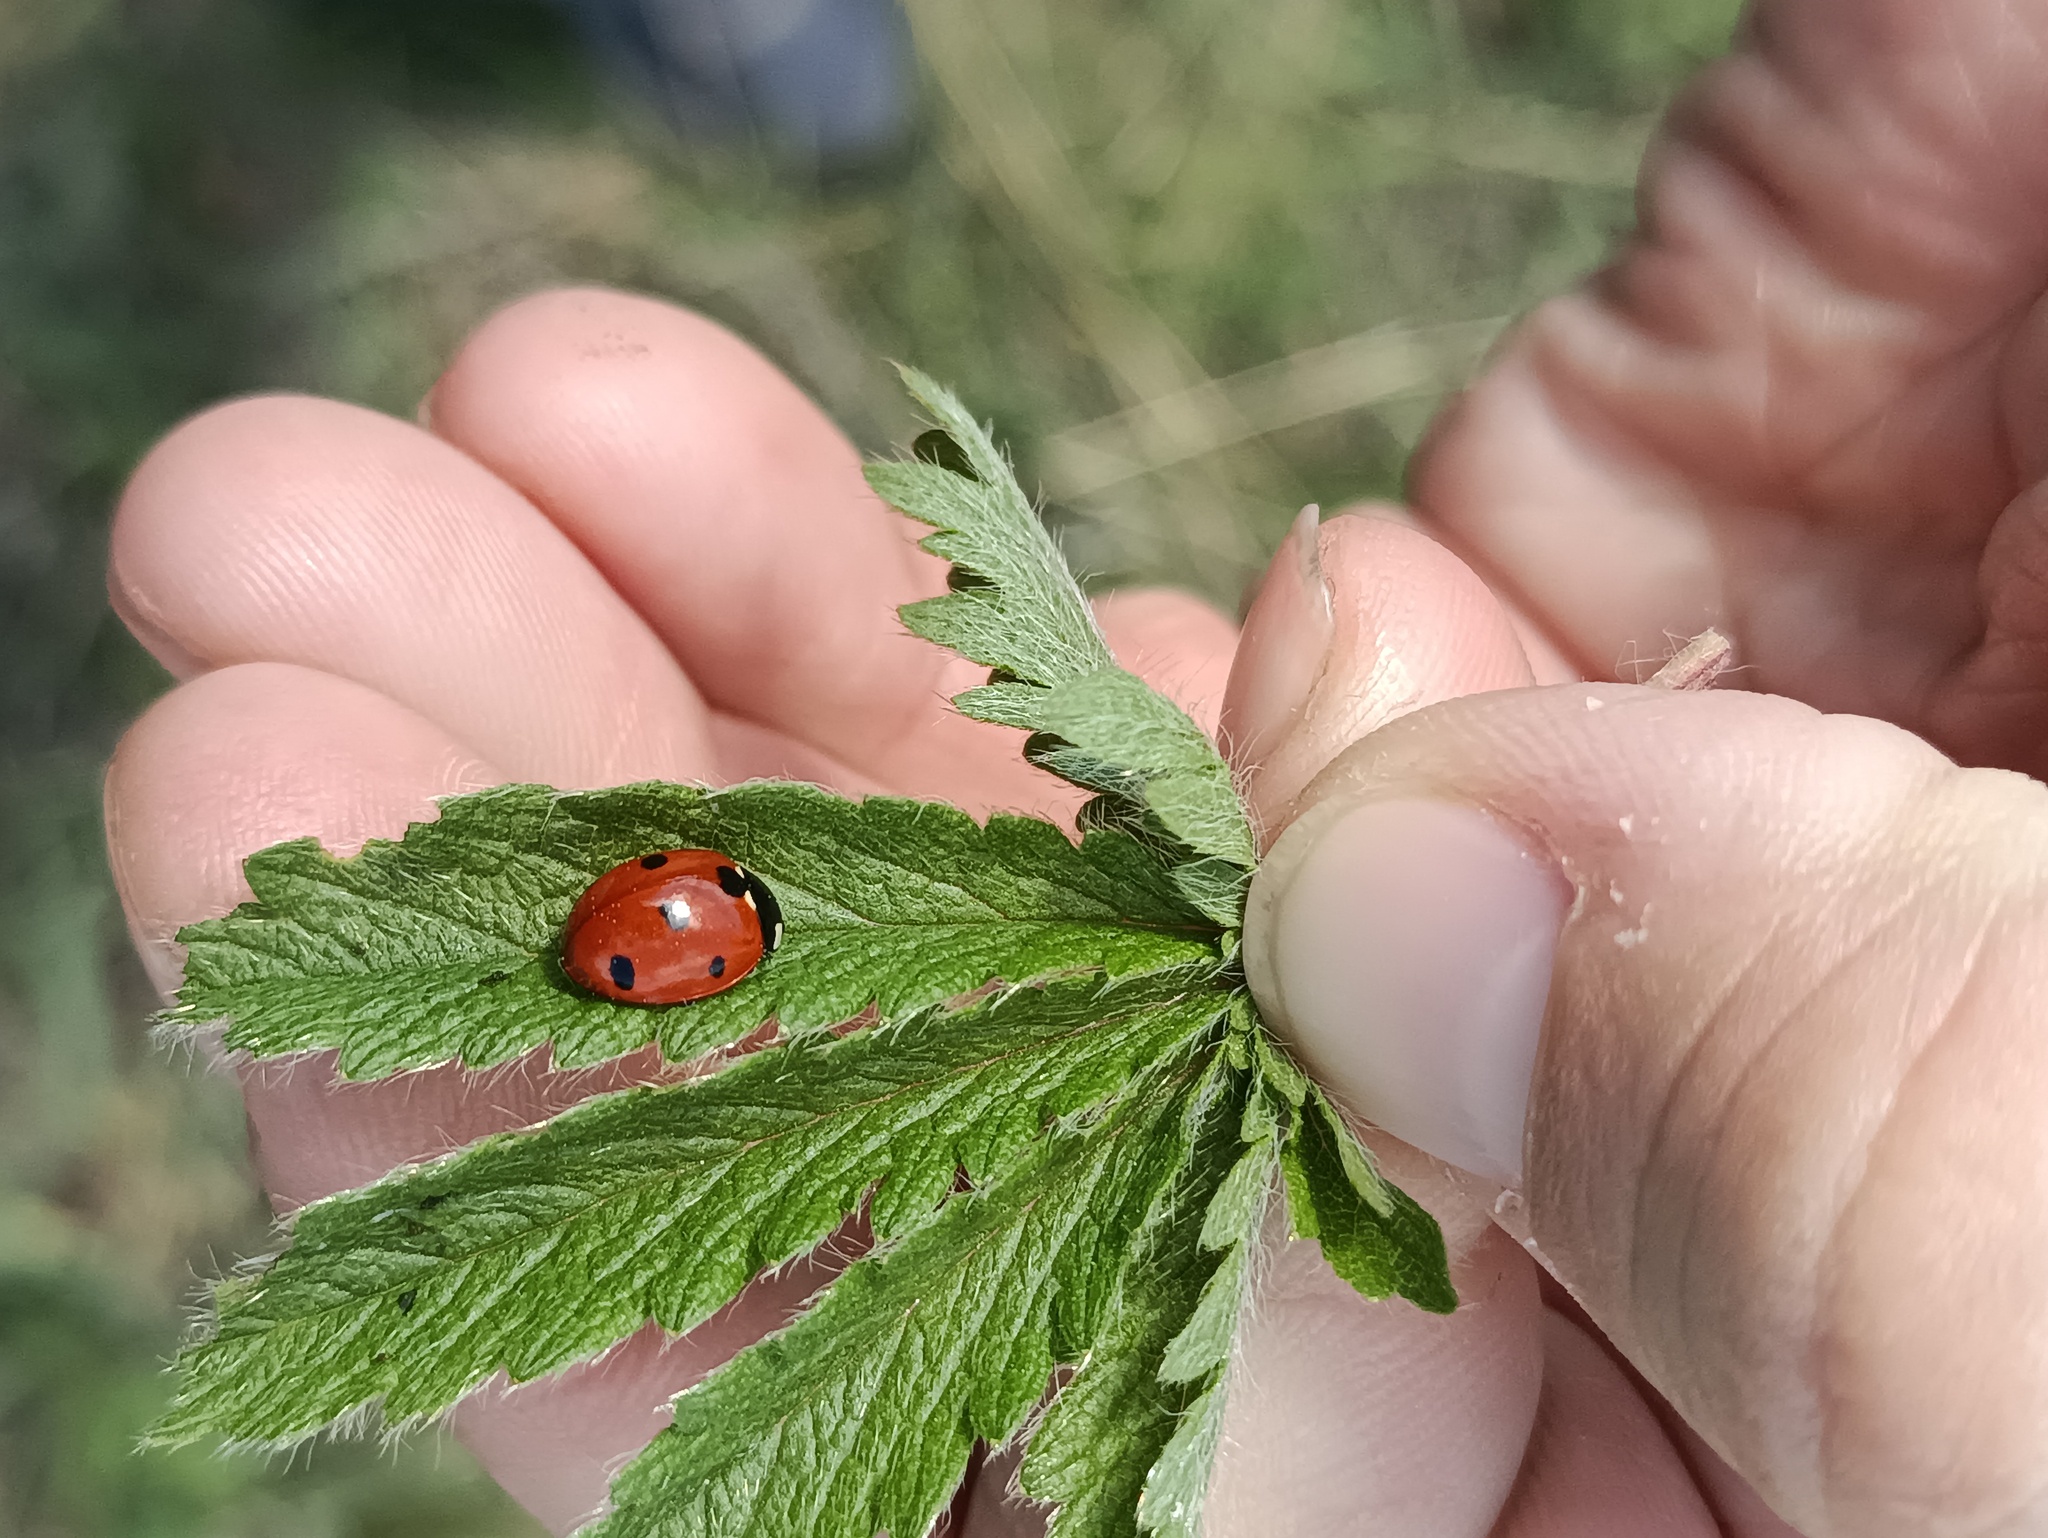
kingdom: Animalia
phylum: Arthropoda
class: Insecta
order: Coleoptera
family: Coccinellidae
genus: Coccinella
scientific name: Coccinella septempunctata
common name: Sevenspotted lady beetle
